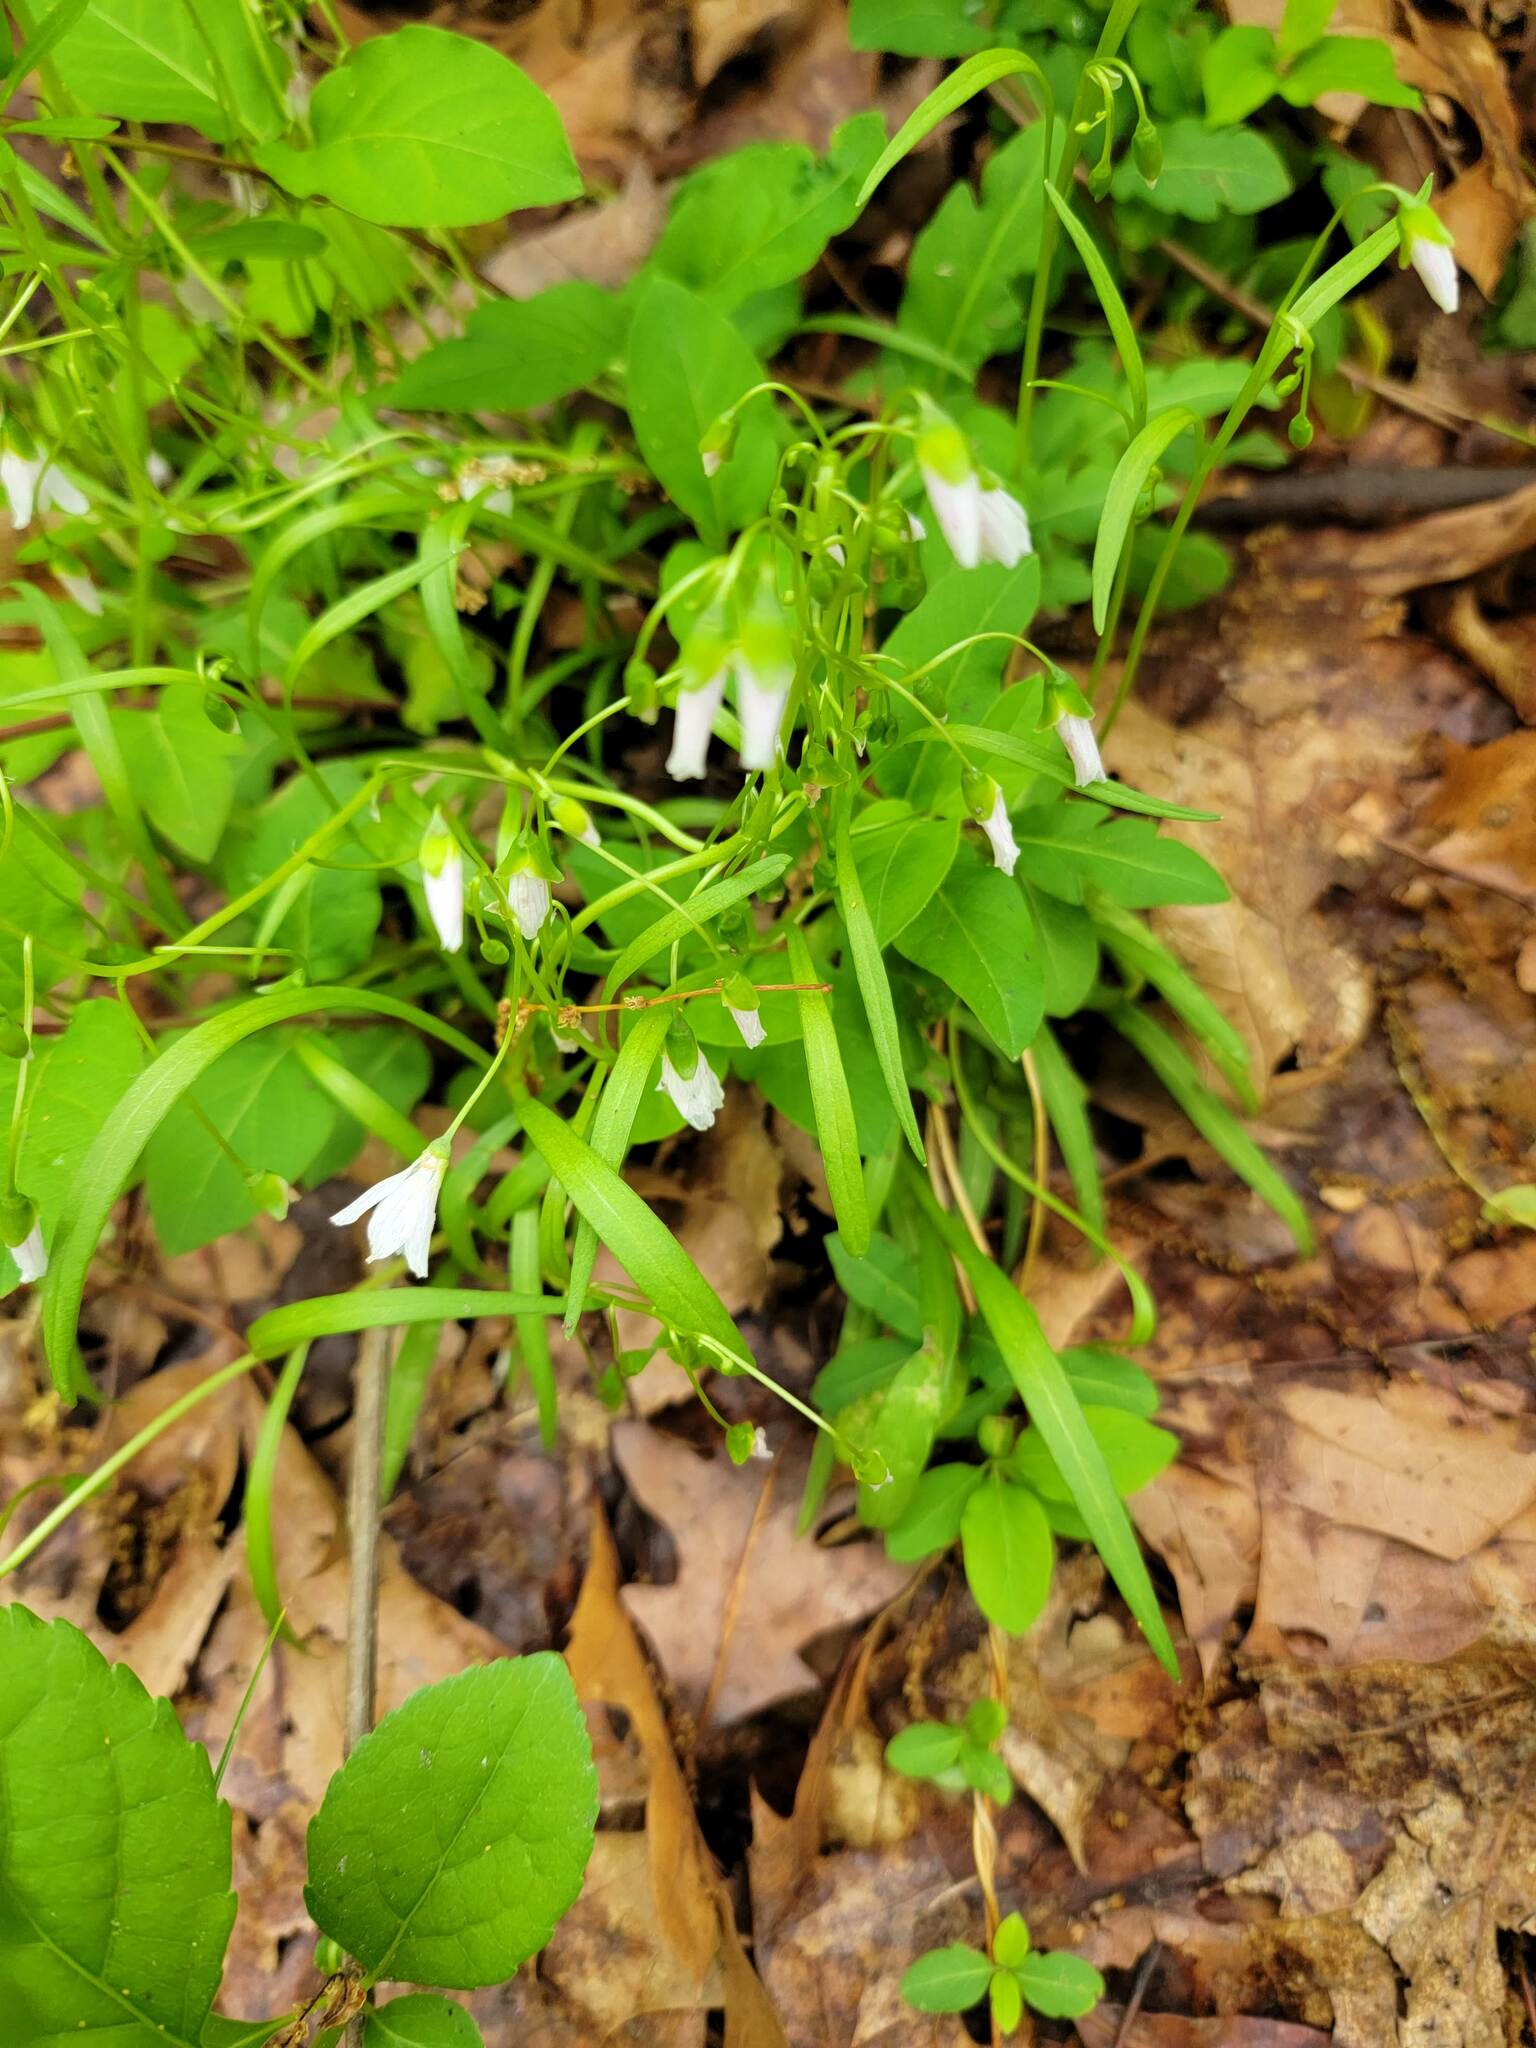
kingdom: Plantae
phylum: Tracheophyta
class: Magnoliopsida
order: Caryophyllales
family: Montiaceae
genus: Claytonia
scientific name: Claytonia virginica
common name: Virginia springbeauty
